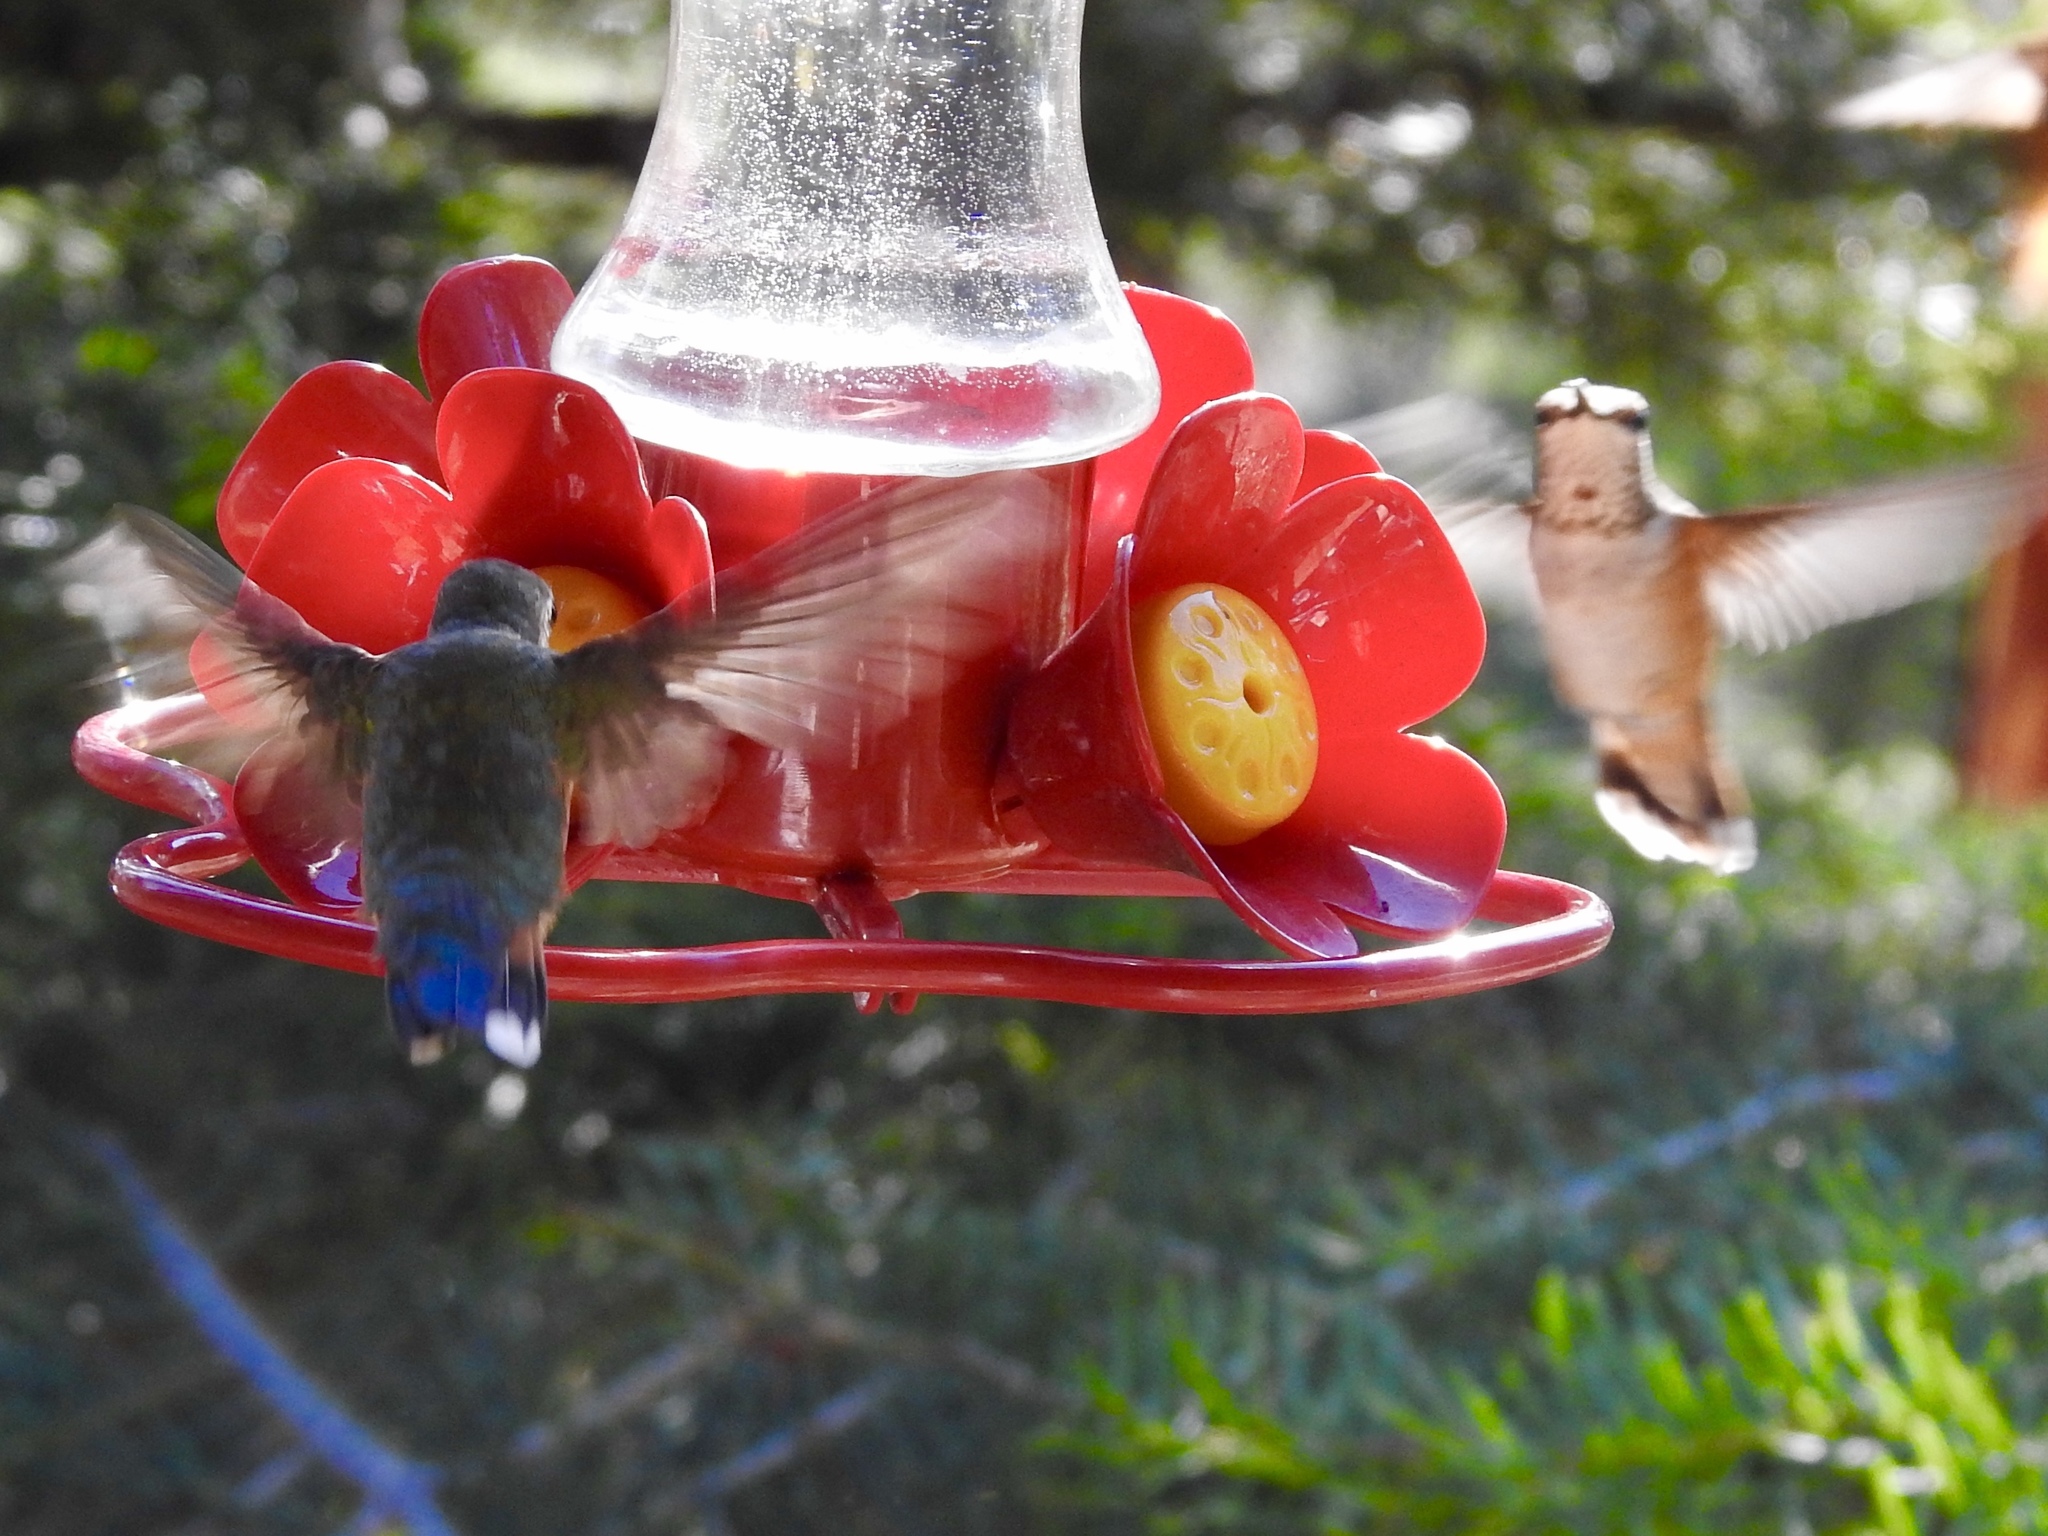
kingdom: Animalia
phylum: Chordata
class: Aves
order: Apodiformes
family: Trochilidae
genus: Selasphorus
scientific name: Selasphorus platycercus
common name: Broad-tailed hummingbird
